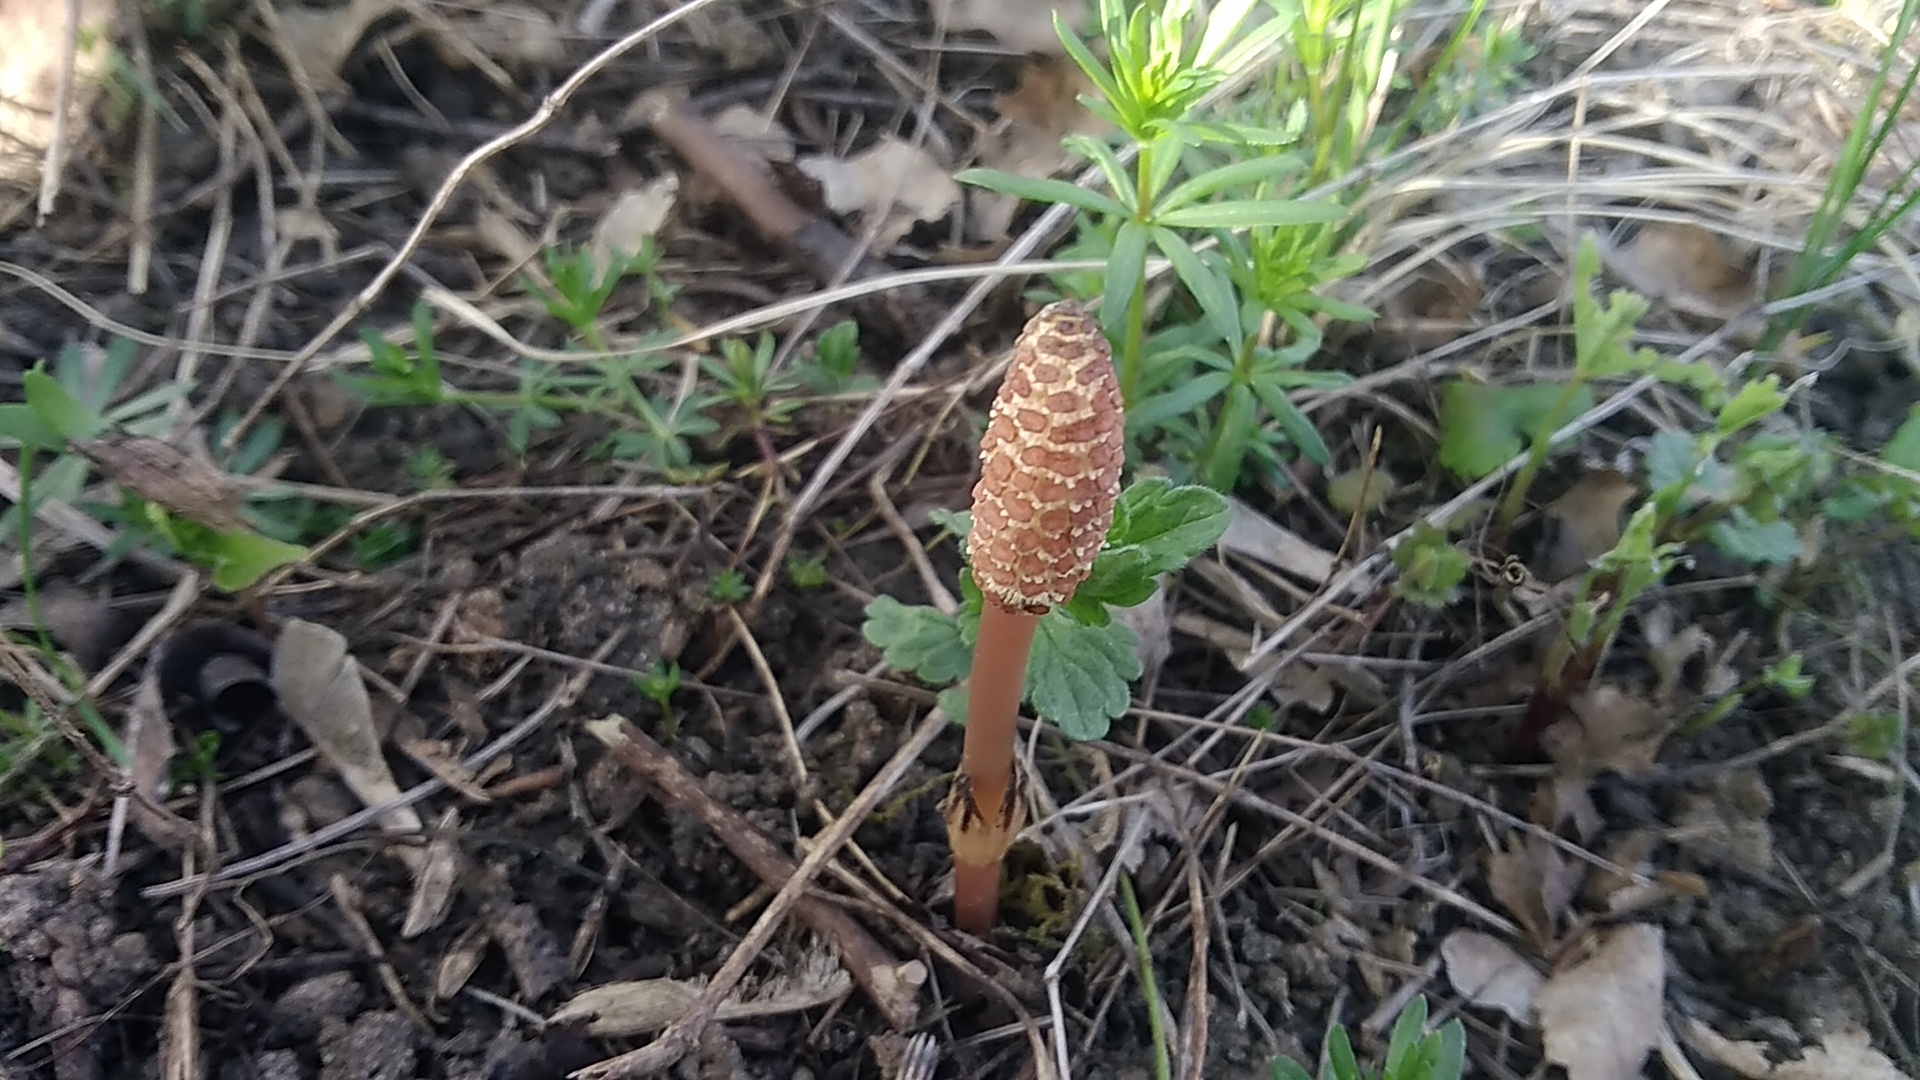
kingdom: Plantae
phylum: Tracheophyta
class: Polypodiopsida
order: Equisetales
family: Equisetaceae
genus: Equisetum
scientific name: Equisetum arvense
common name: Field horsetail
